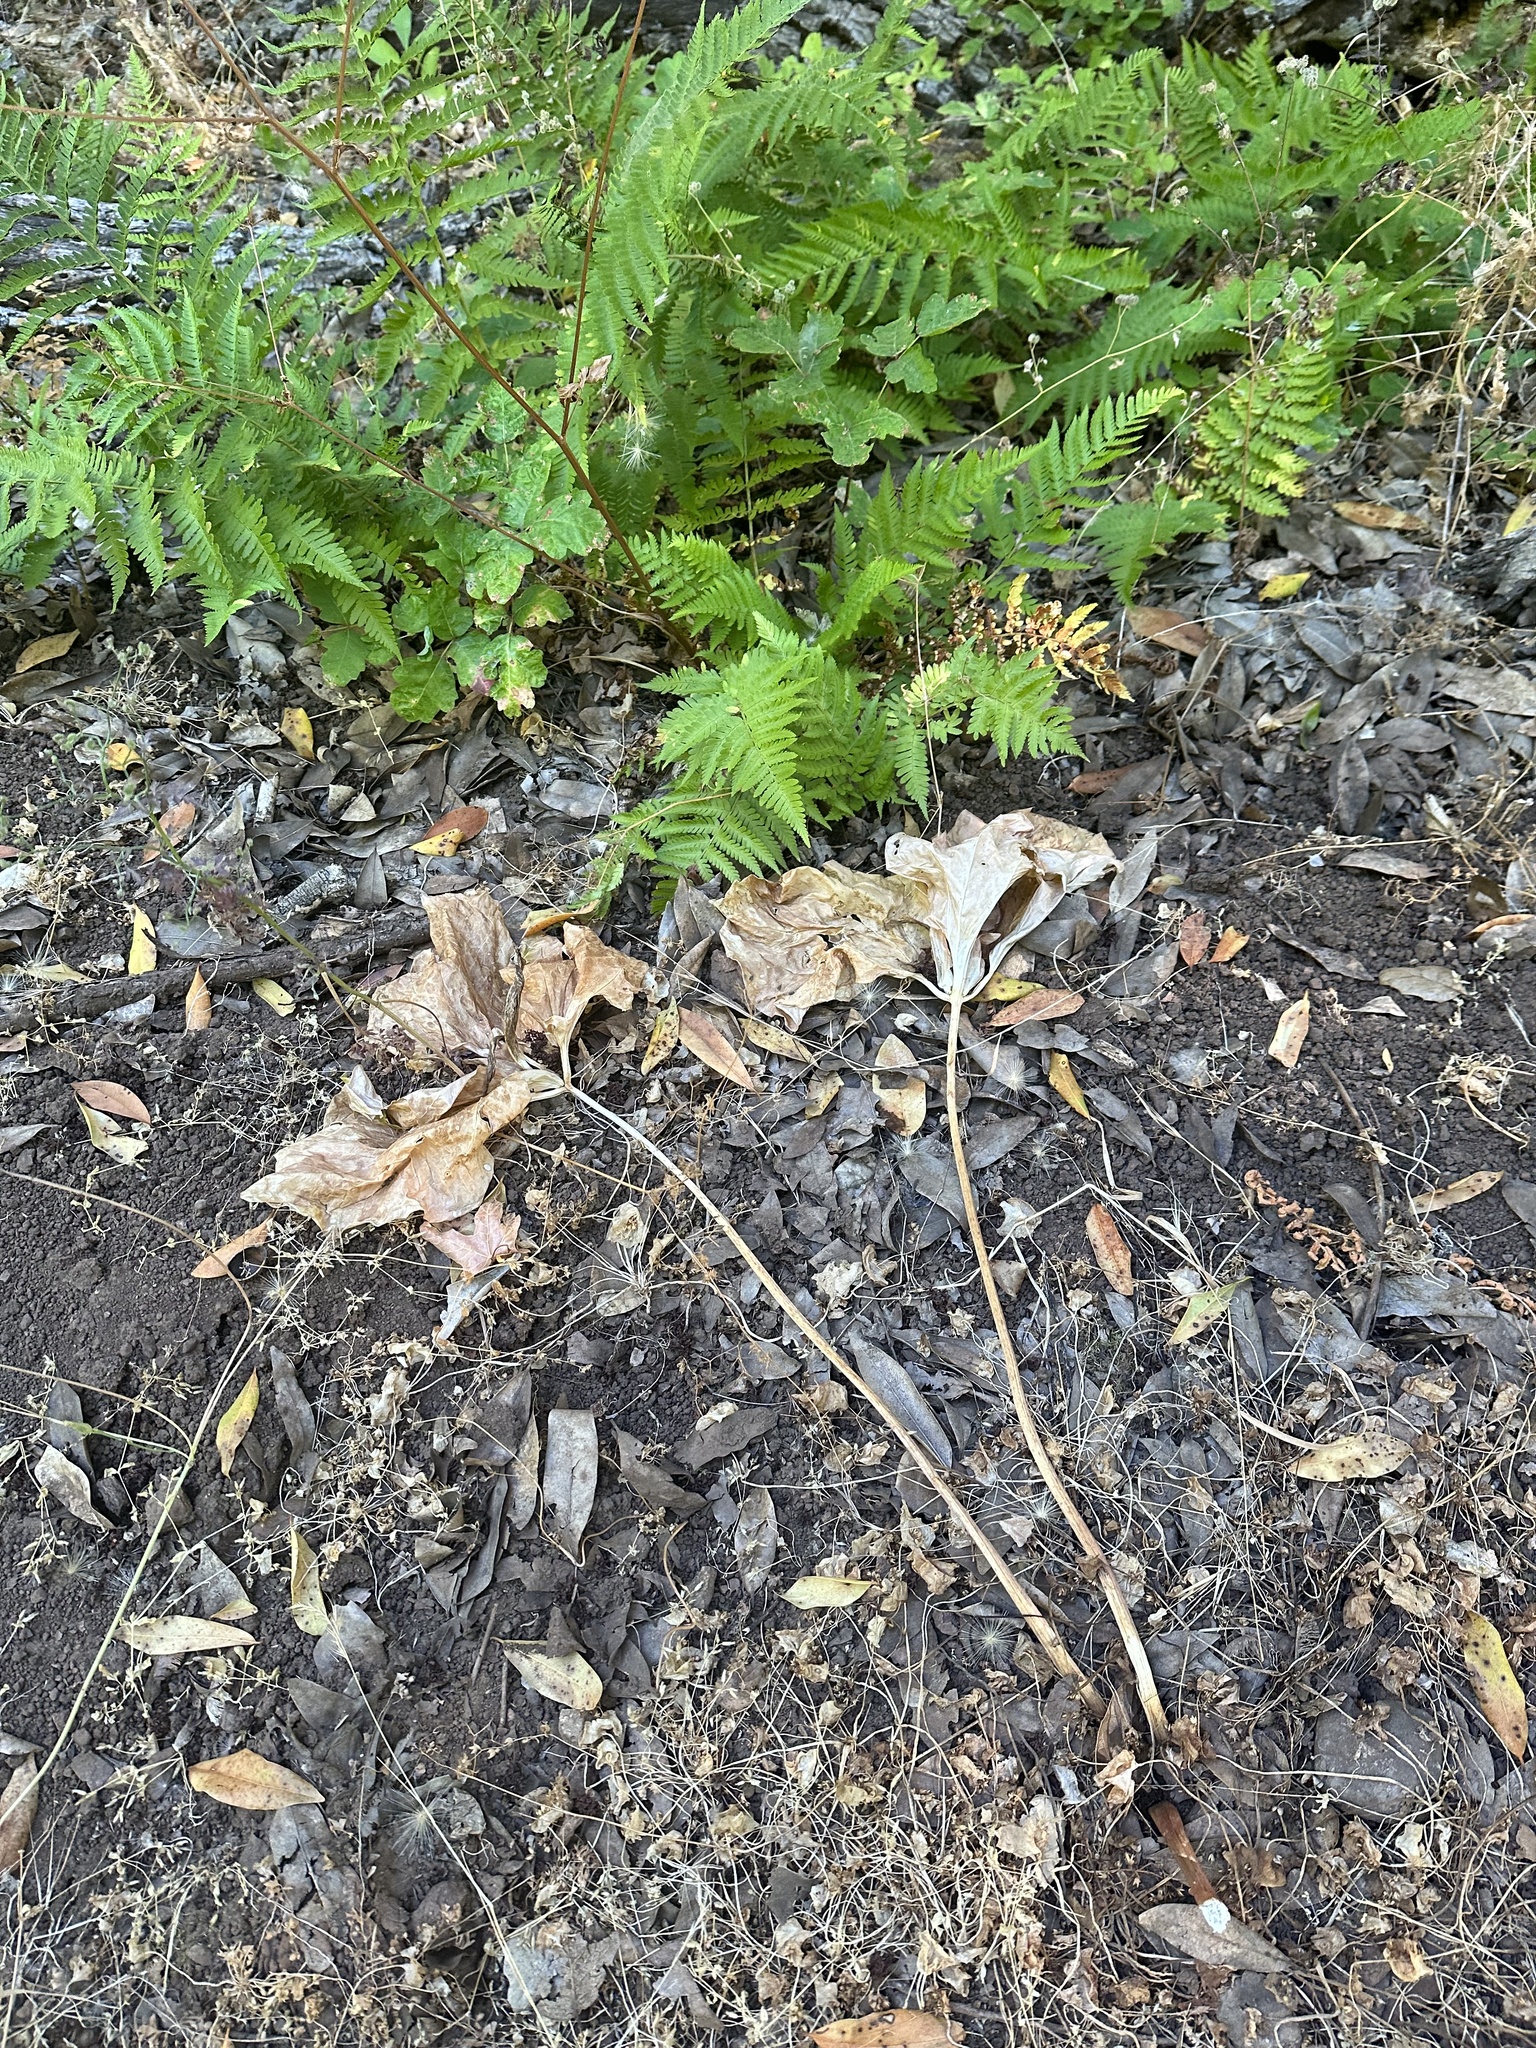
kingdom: Plantae
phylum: Tracheophyta
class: Liliopsida
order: Liliales
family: Melanthiaceae
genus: Trillium
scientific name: Trillium chloropetalum
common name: Giant trillium
